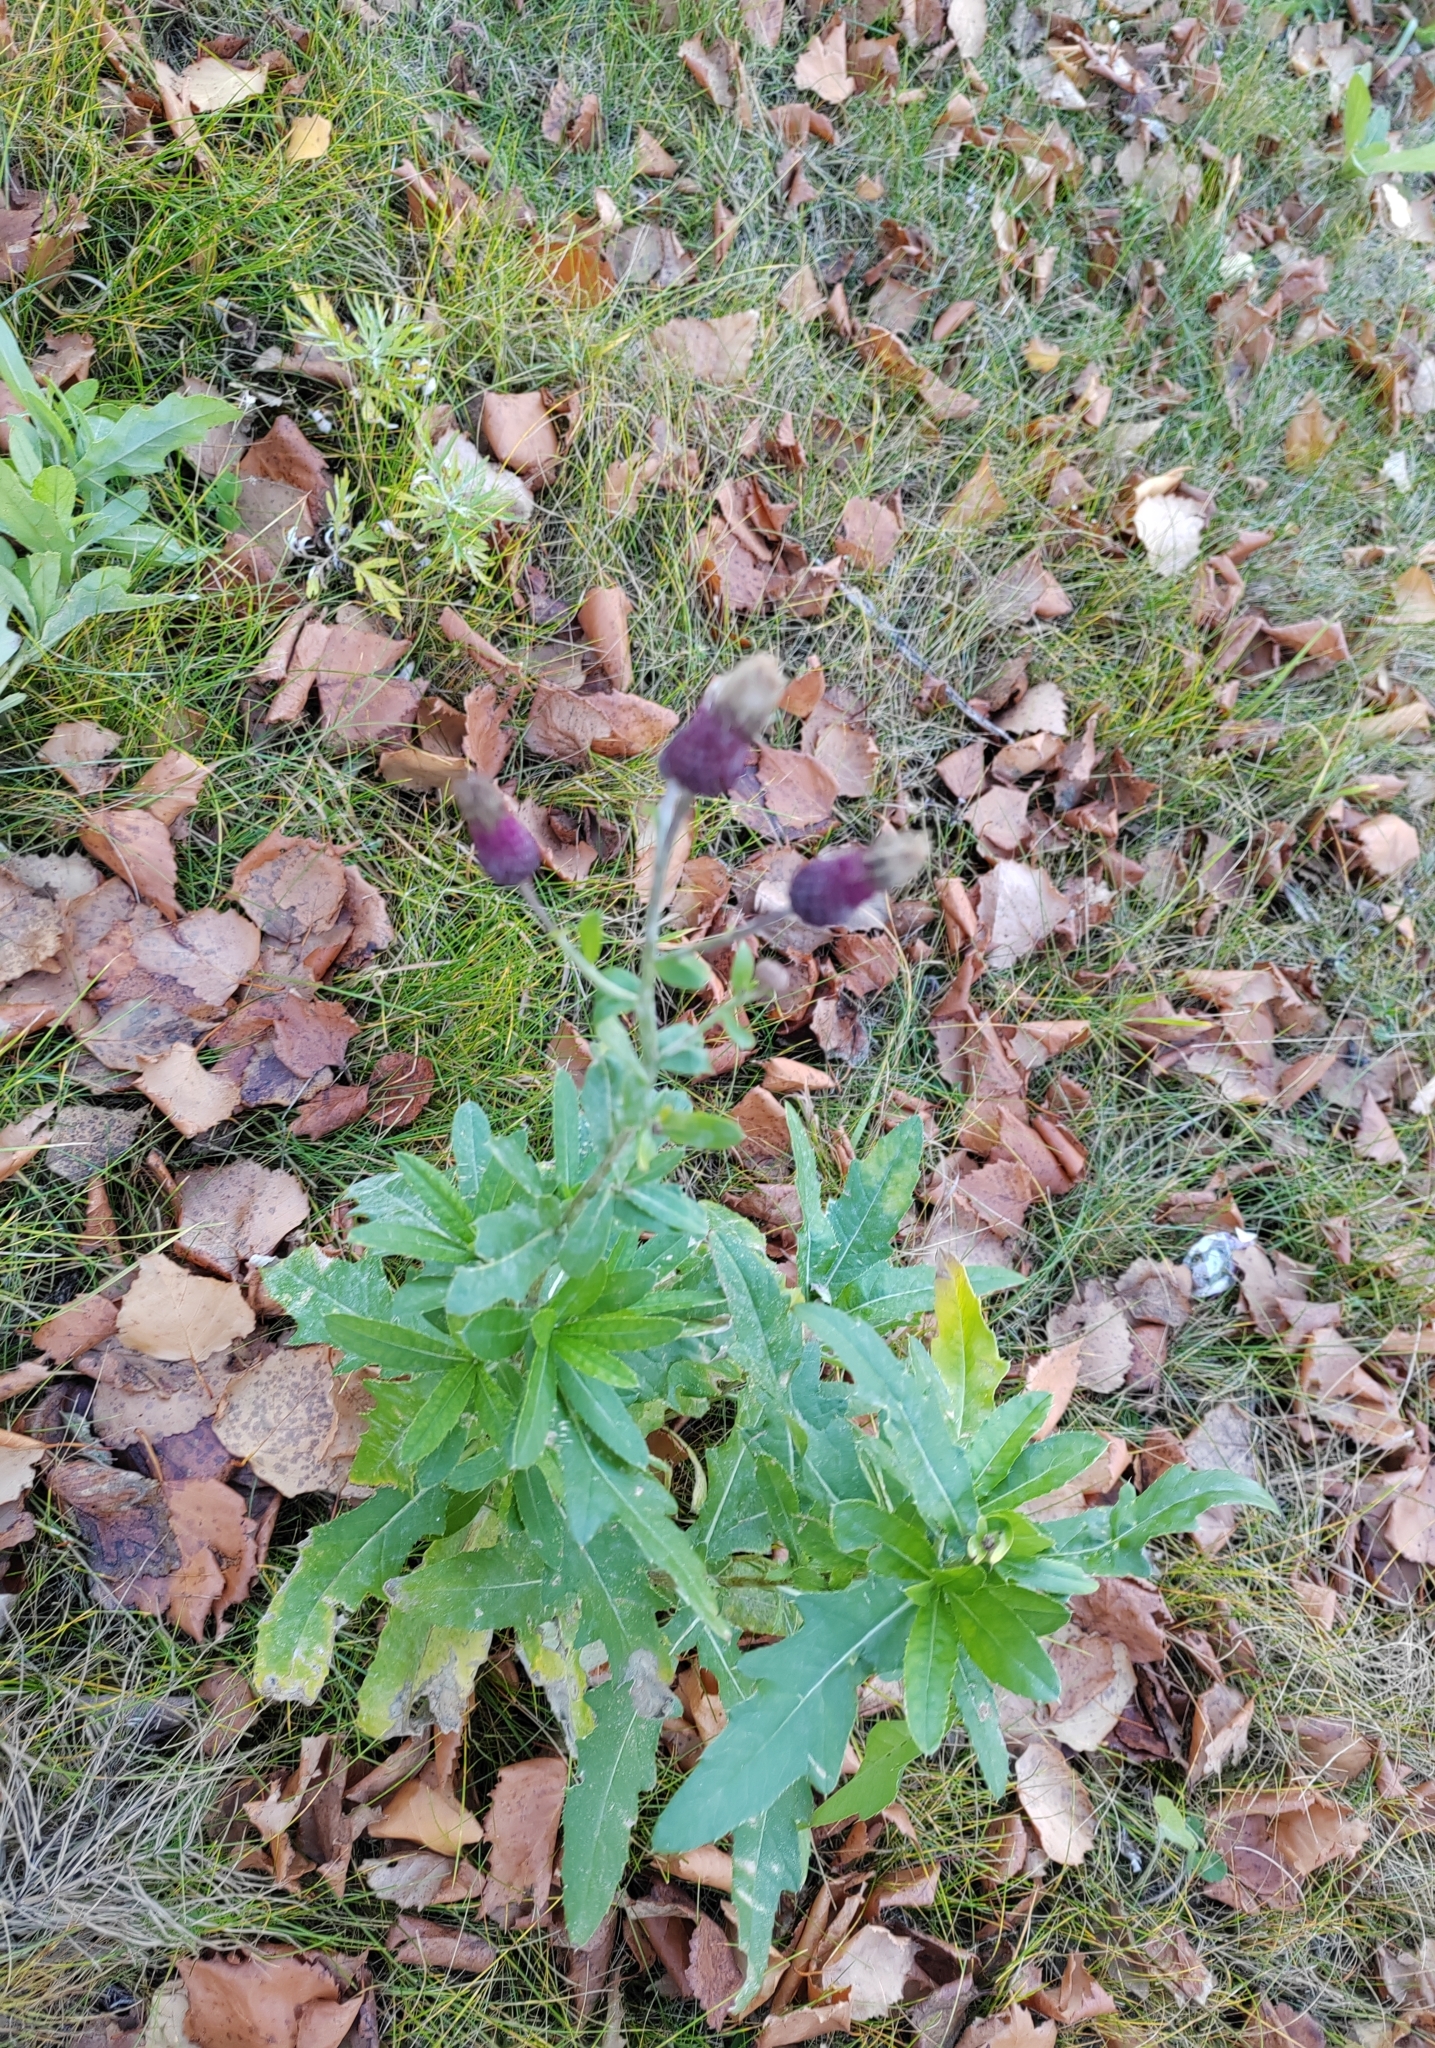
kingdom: Plantae
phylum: Tracheophyta
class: Magnoliopsida
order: Asterales
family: Asteraceae
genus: Cirsium
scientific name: Cirsium arvense
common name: Creeping thistle
